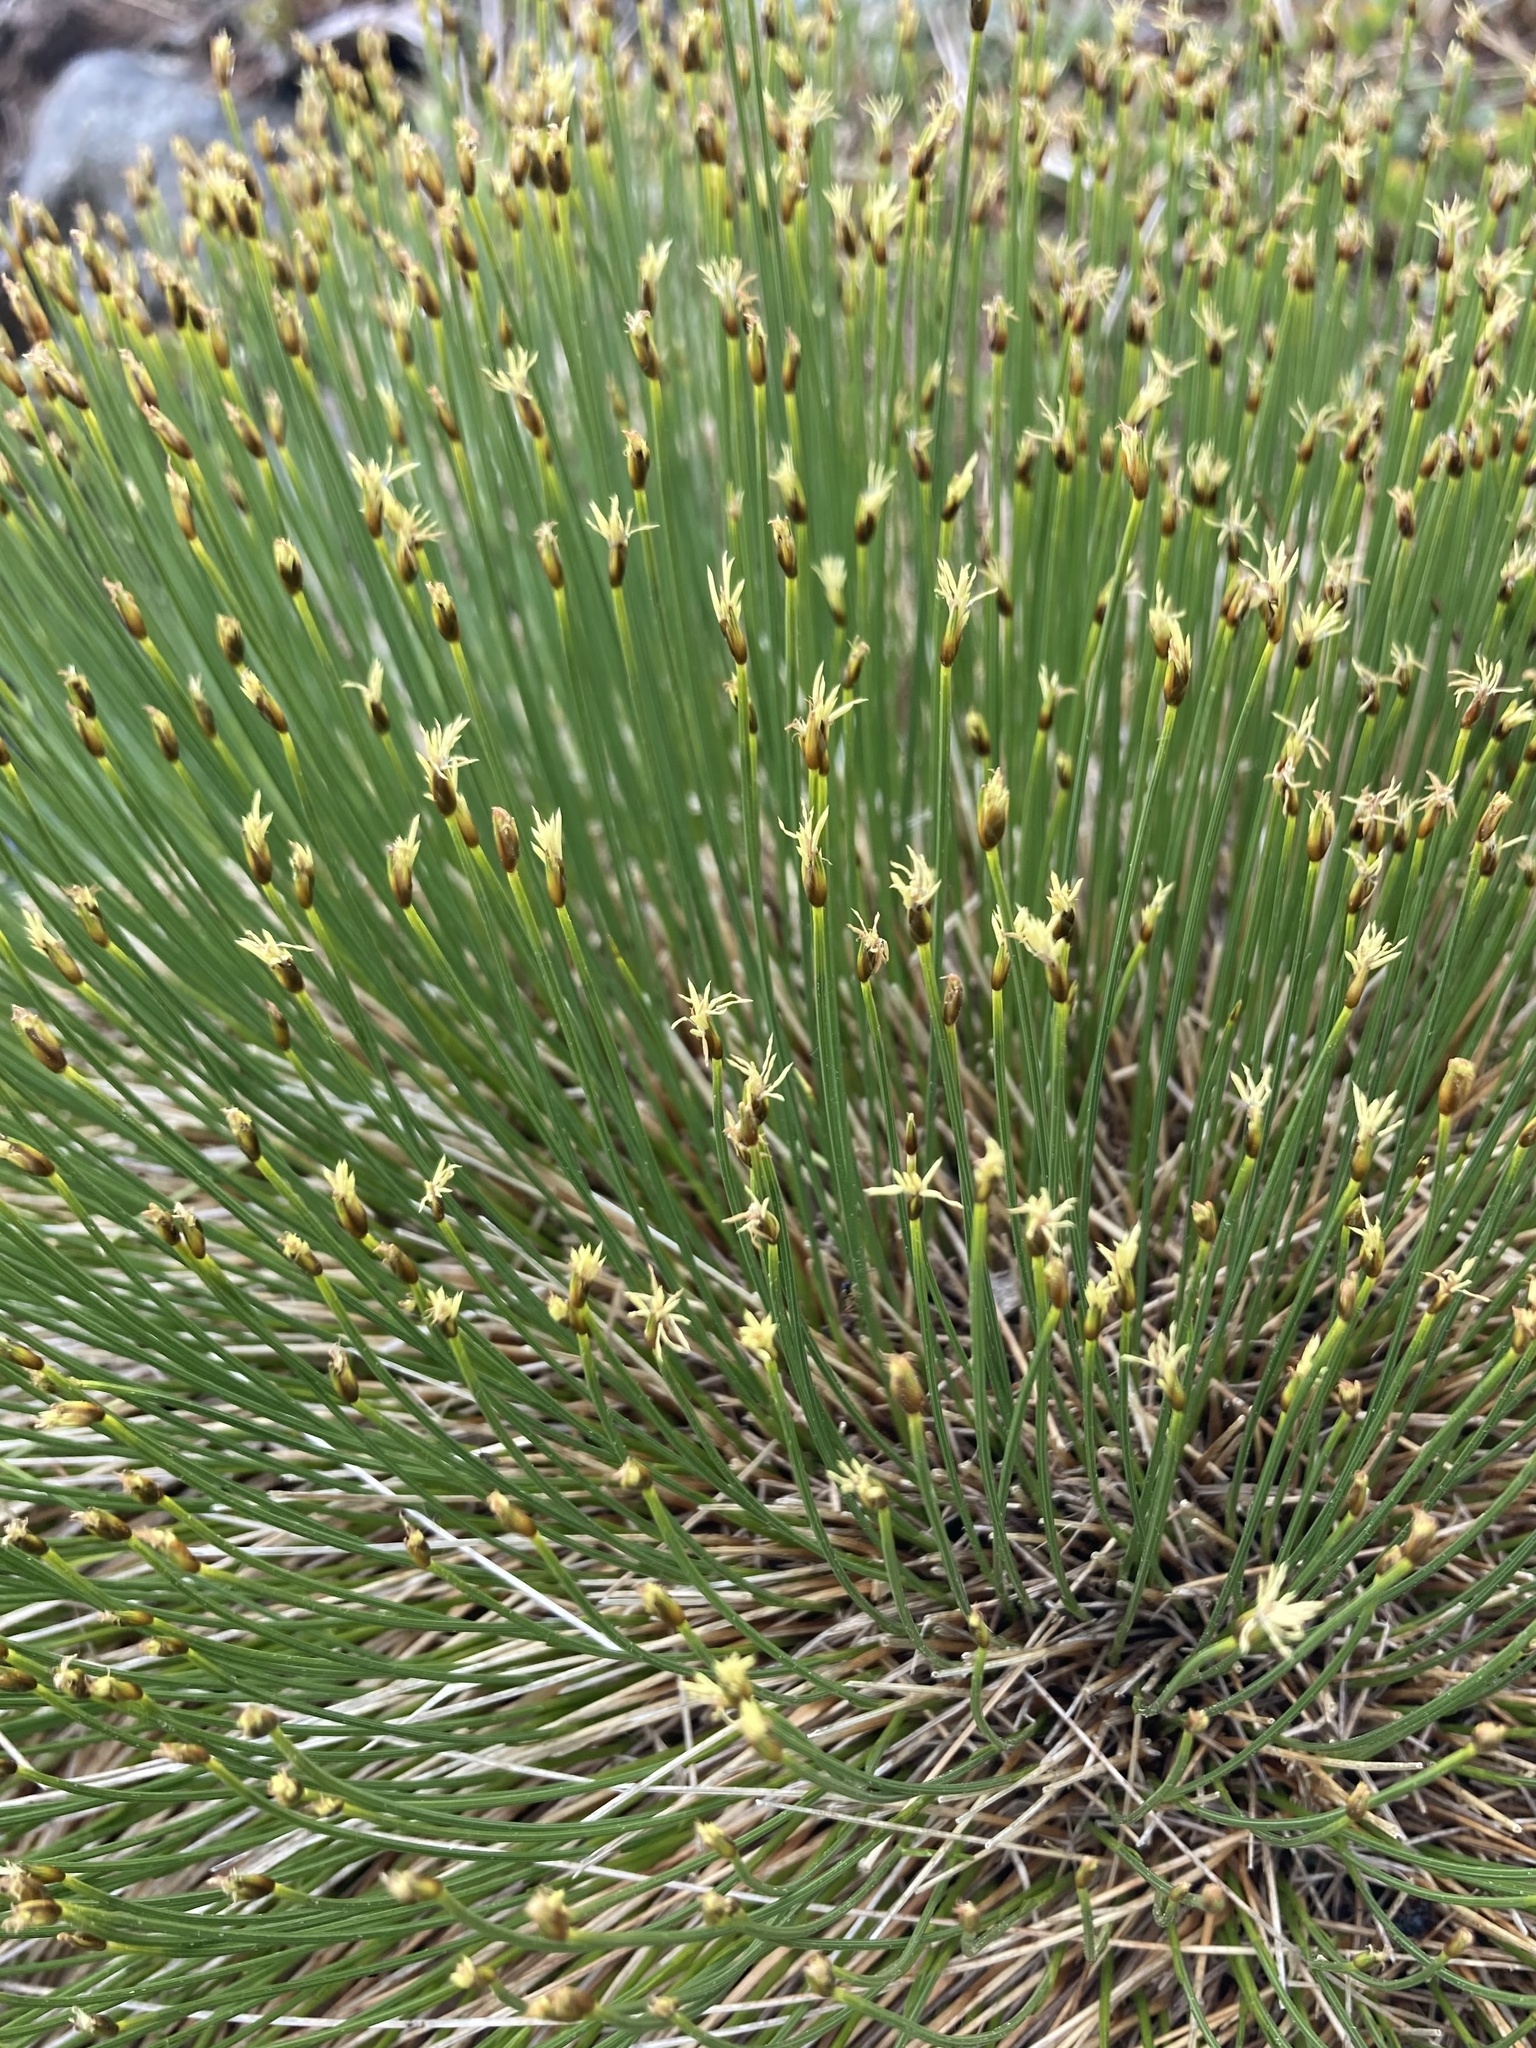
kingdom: Plantae
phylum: Tracheophyta
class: Liliopsida
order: Poales
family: Cyperaceae
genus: Trichophorum
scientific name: Trichophorum cespitosum
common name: Cespitose bulrush
